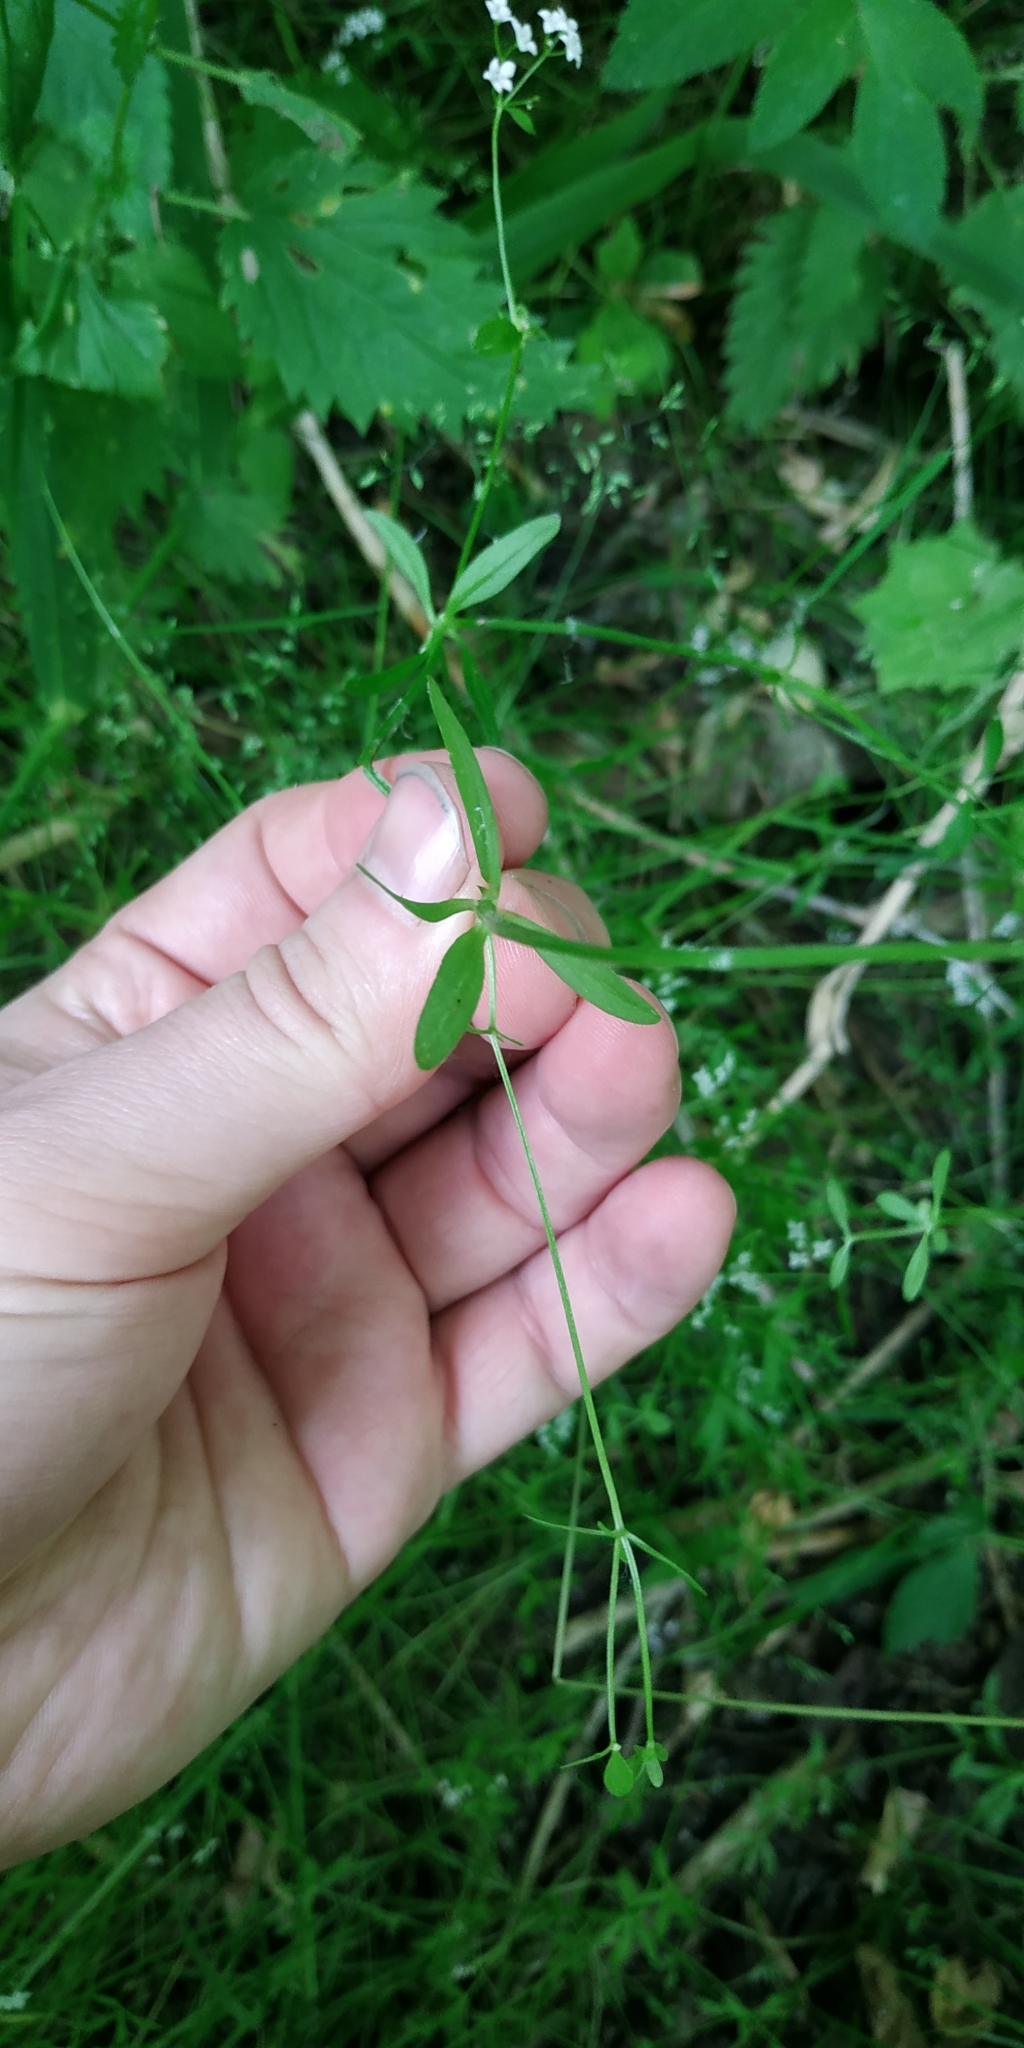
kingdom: Plantae
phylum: Tracheophyta
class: Magnoliopsida
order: Gentianales
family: Rubiaceae
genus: Galium
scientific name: Galium palustre
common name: Common marsh-bedstraw
